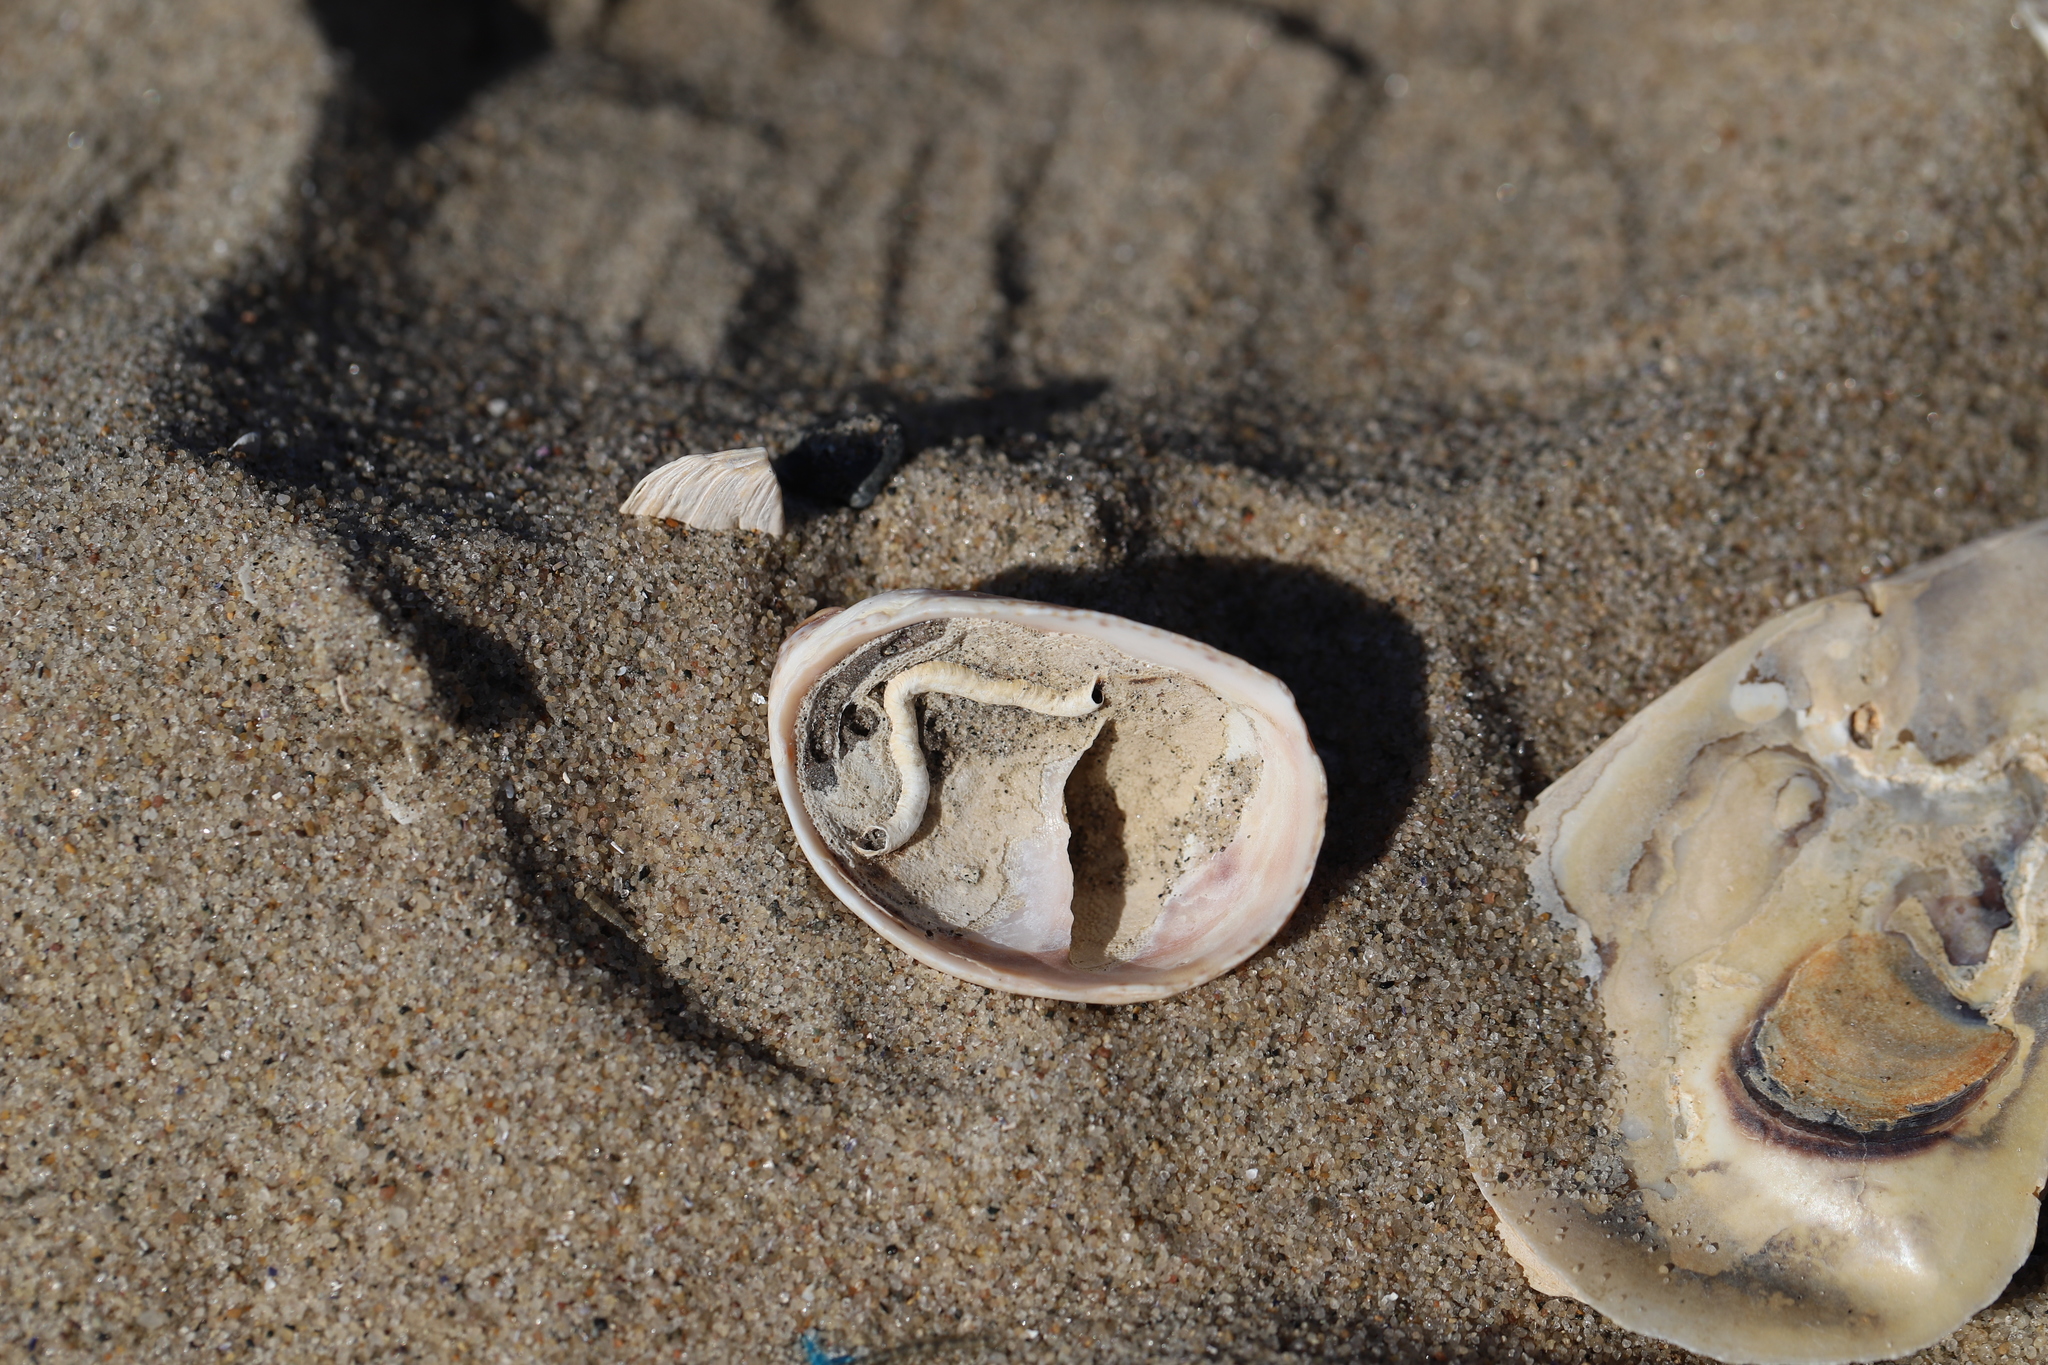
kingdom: Animalia
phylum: Mollusca
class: Gastropoda
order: Littorinimorpha
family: Calyptraeidae
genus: Crepidula
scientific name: Crepidula fornicata
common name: Slipper limpet
